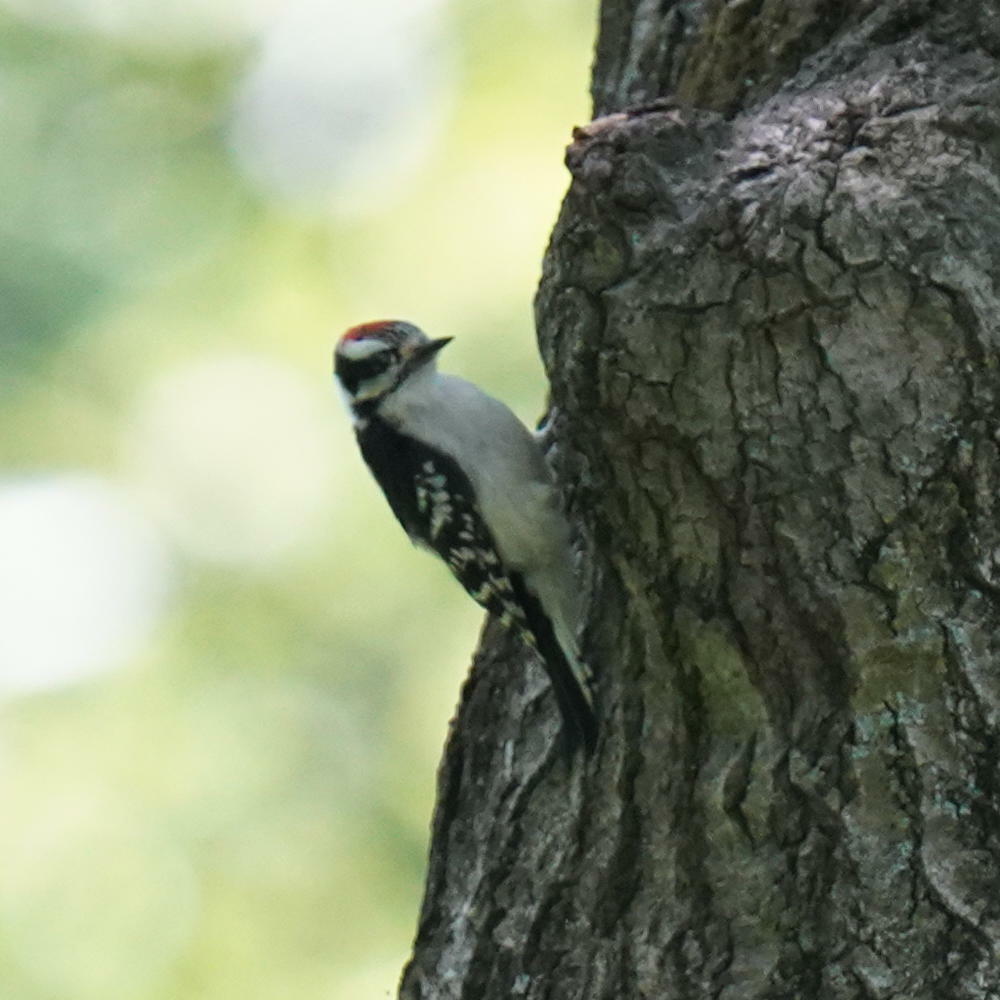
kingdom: Animalia
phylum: Chordata
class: Aves
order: Piciformes
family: Picidae
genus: Dryobates
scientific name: Dryobates pubescens
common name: Downy woodpecker
